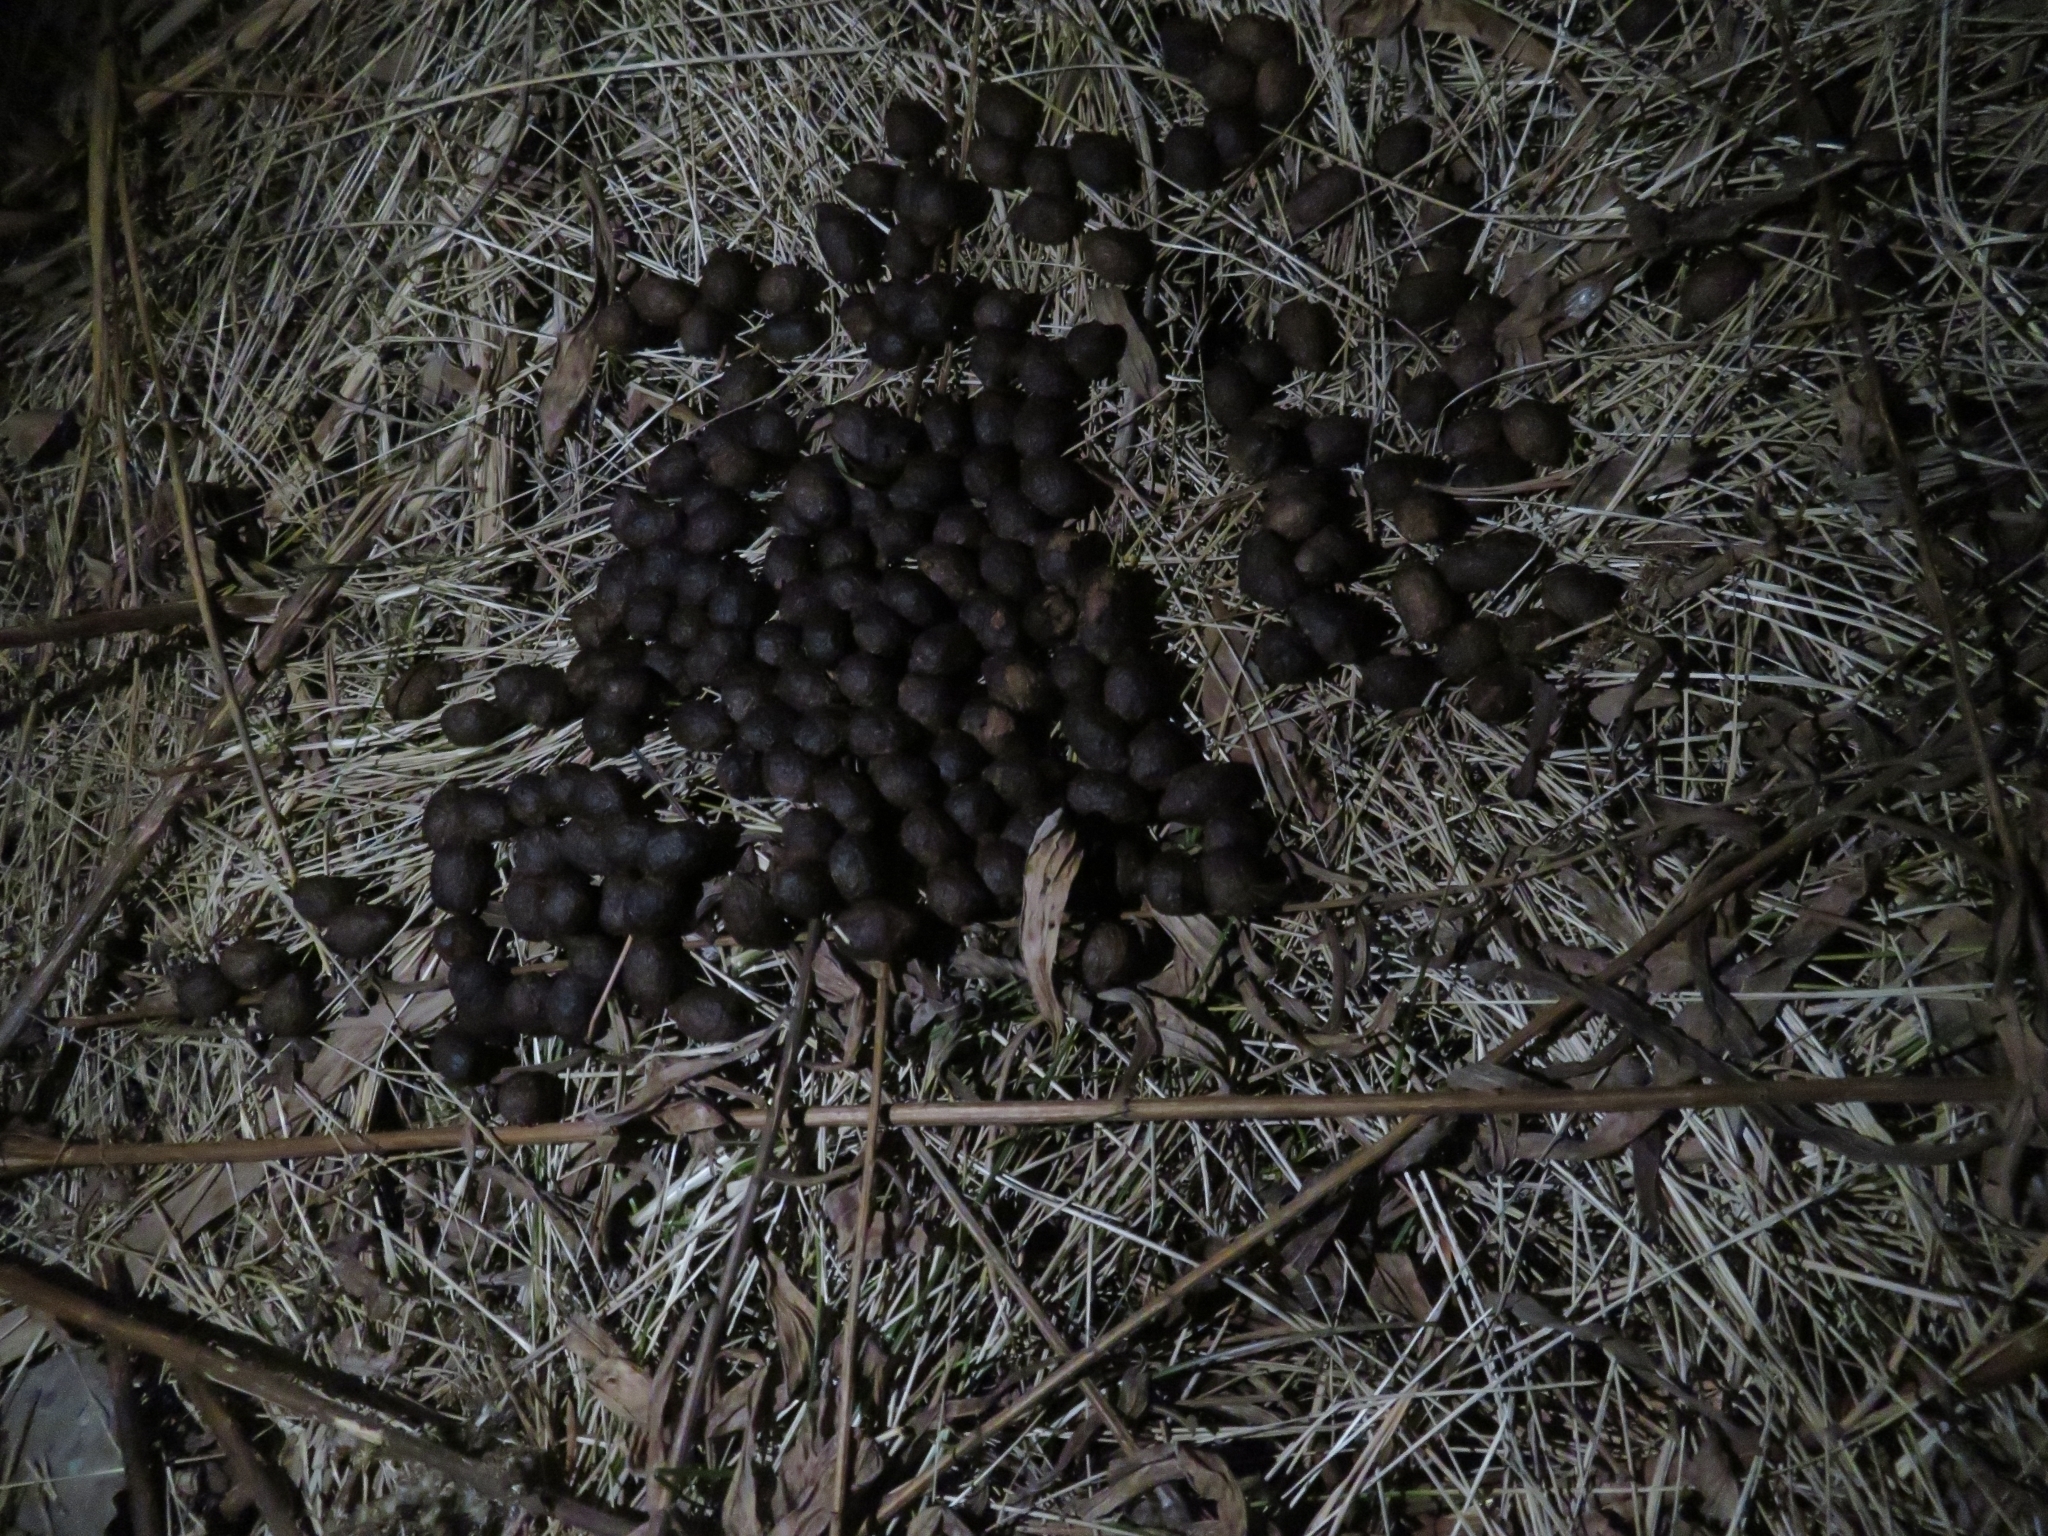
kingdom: Animalia
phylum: Chordata
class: Mammalia
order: Lagomorpha
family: Leporidae
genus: Sylvilagus
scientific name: Sylvilagus floridanus
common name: Eastern cottontail
